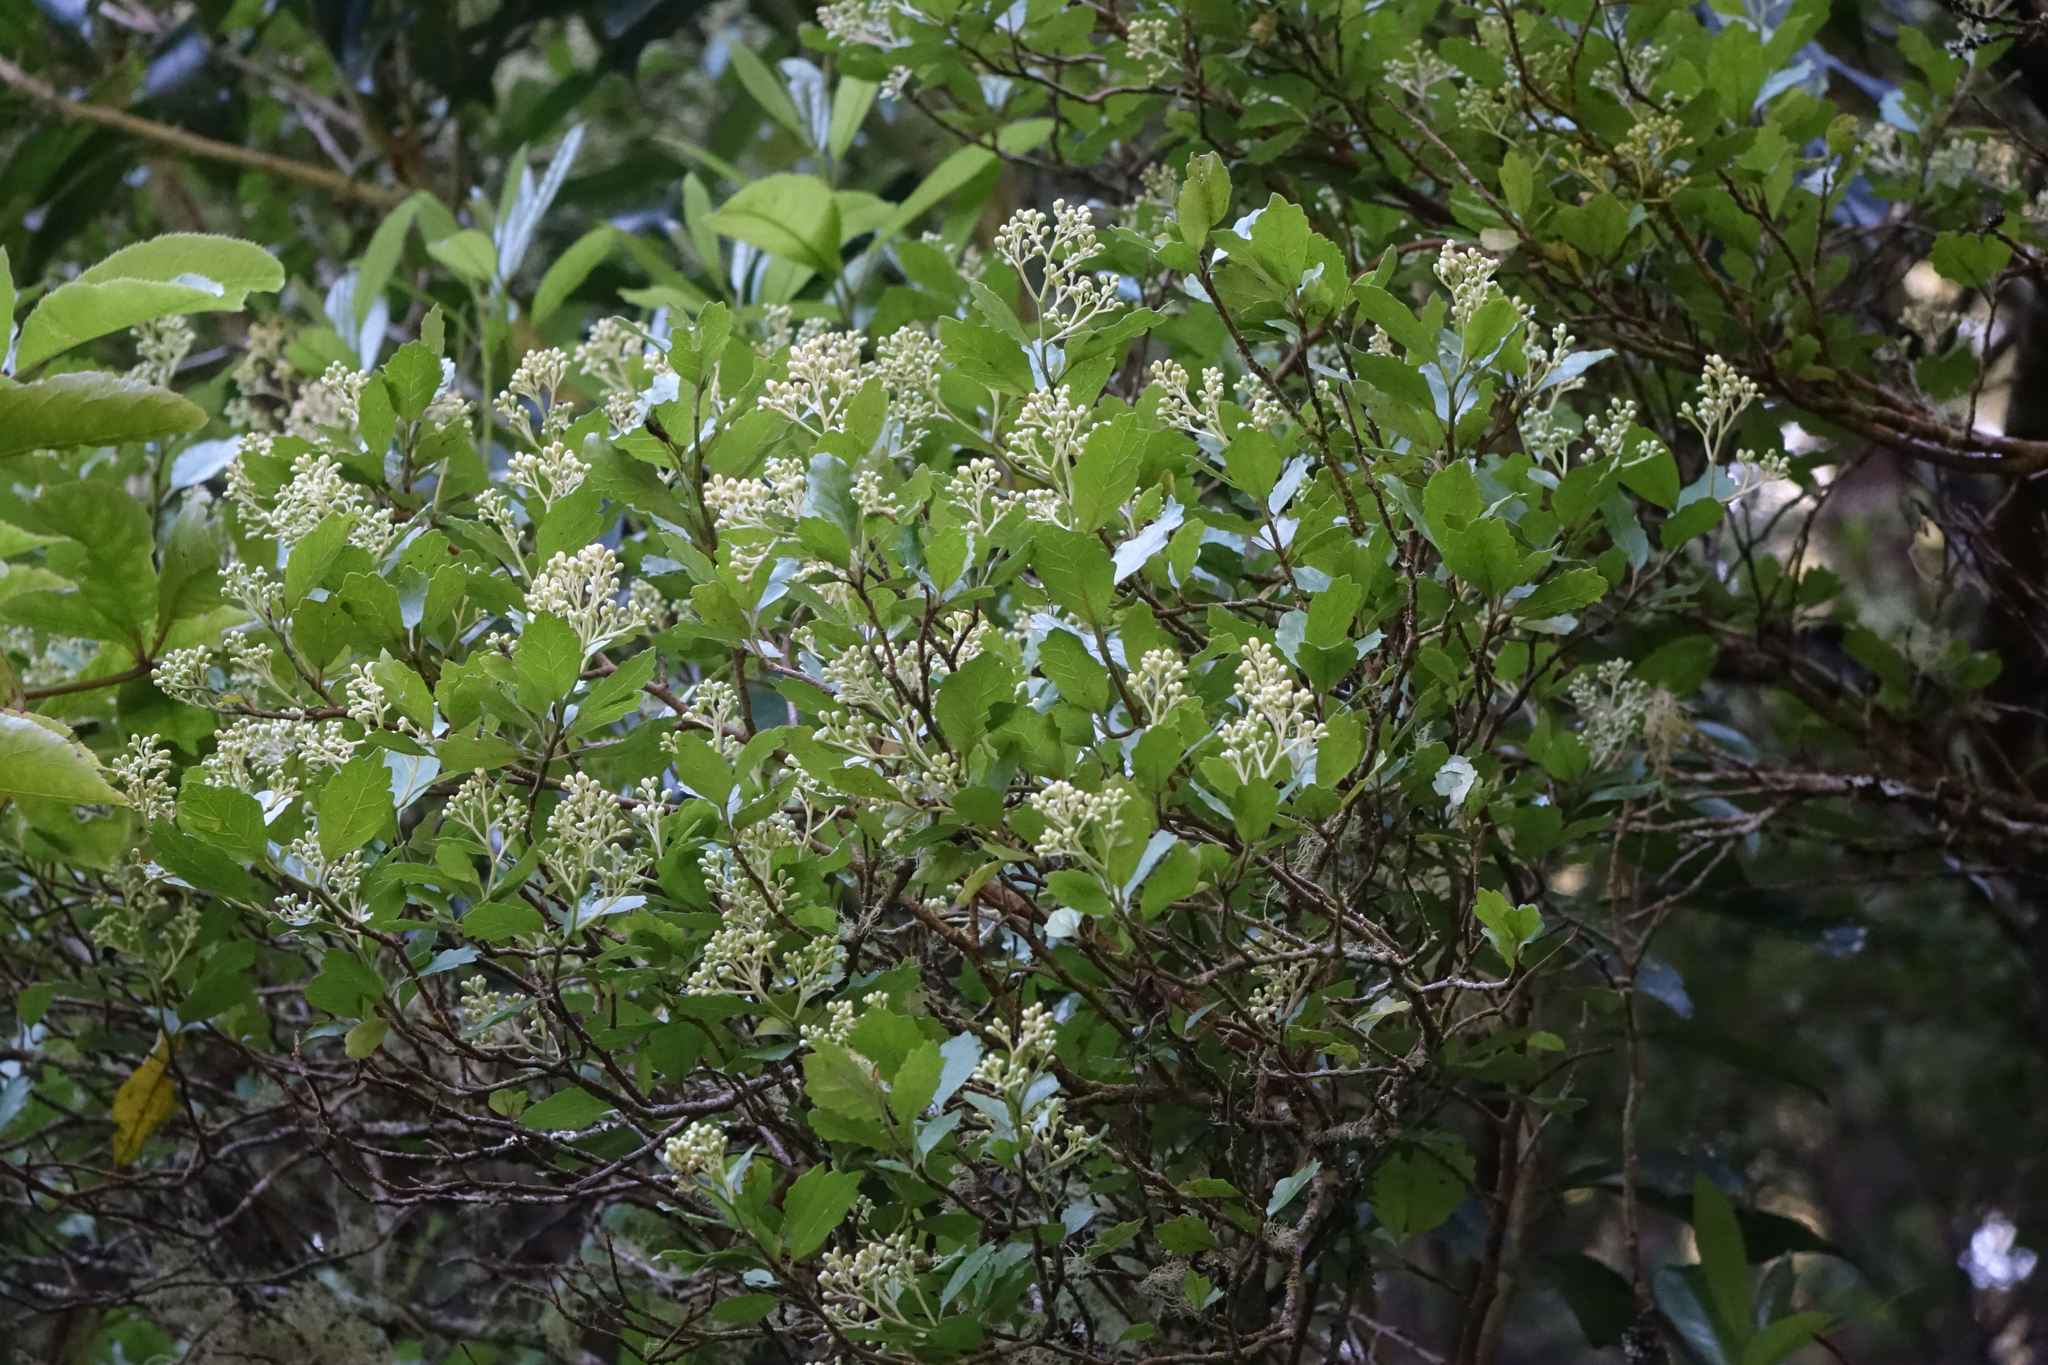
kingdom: Plantae
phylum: Tracheophyta
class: Magnoliopsida
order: Apiales
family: Pennantiaceae
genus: Pennantia
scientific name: Pennantia corymbosa
